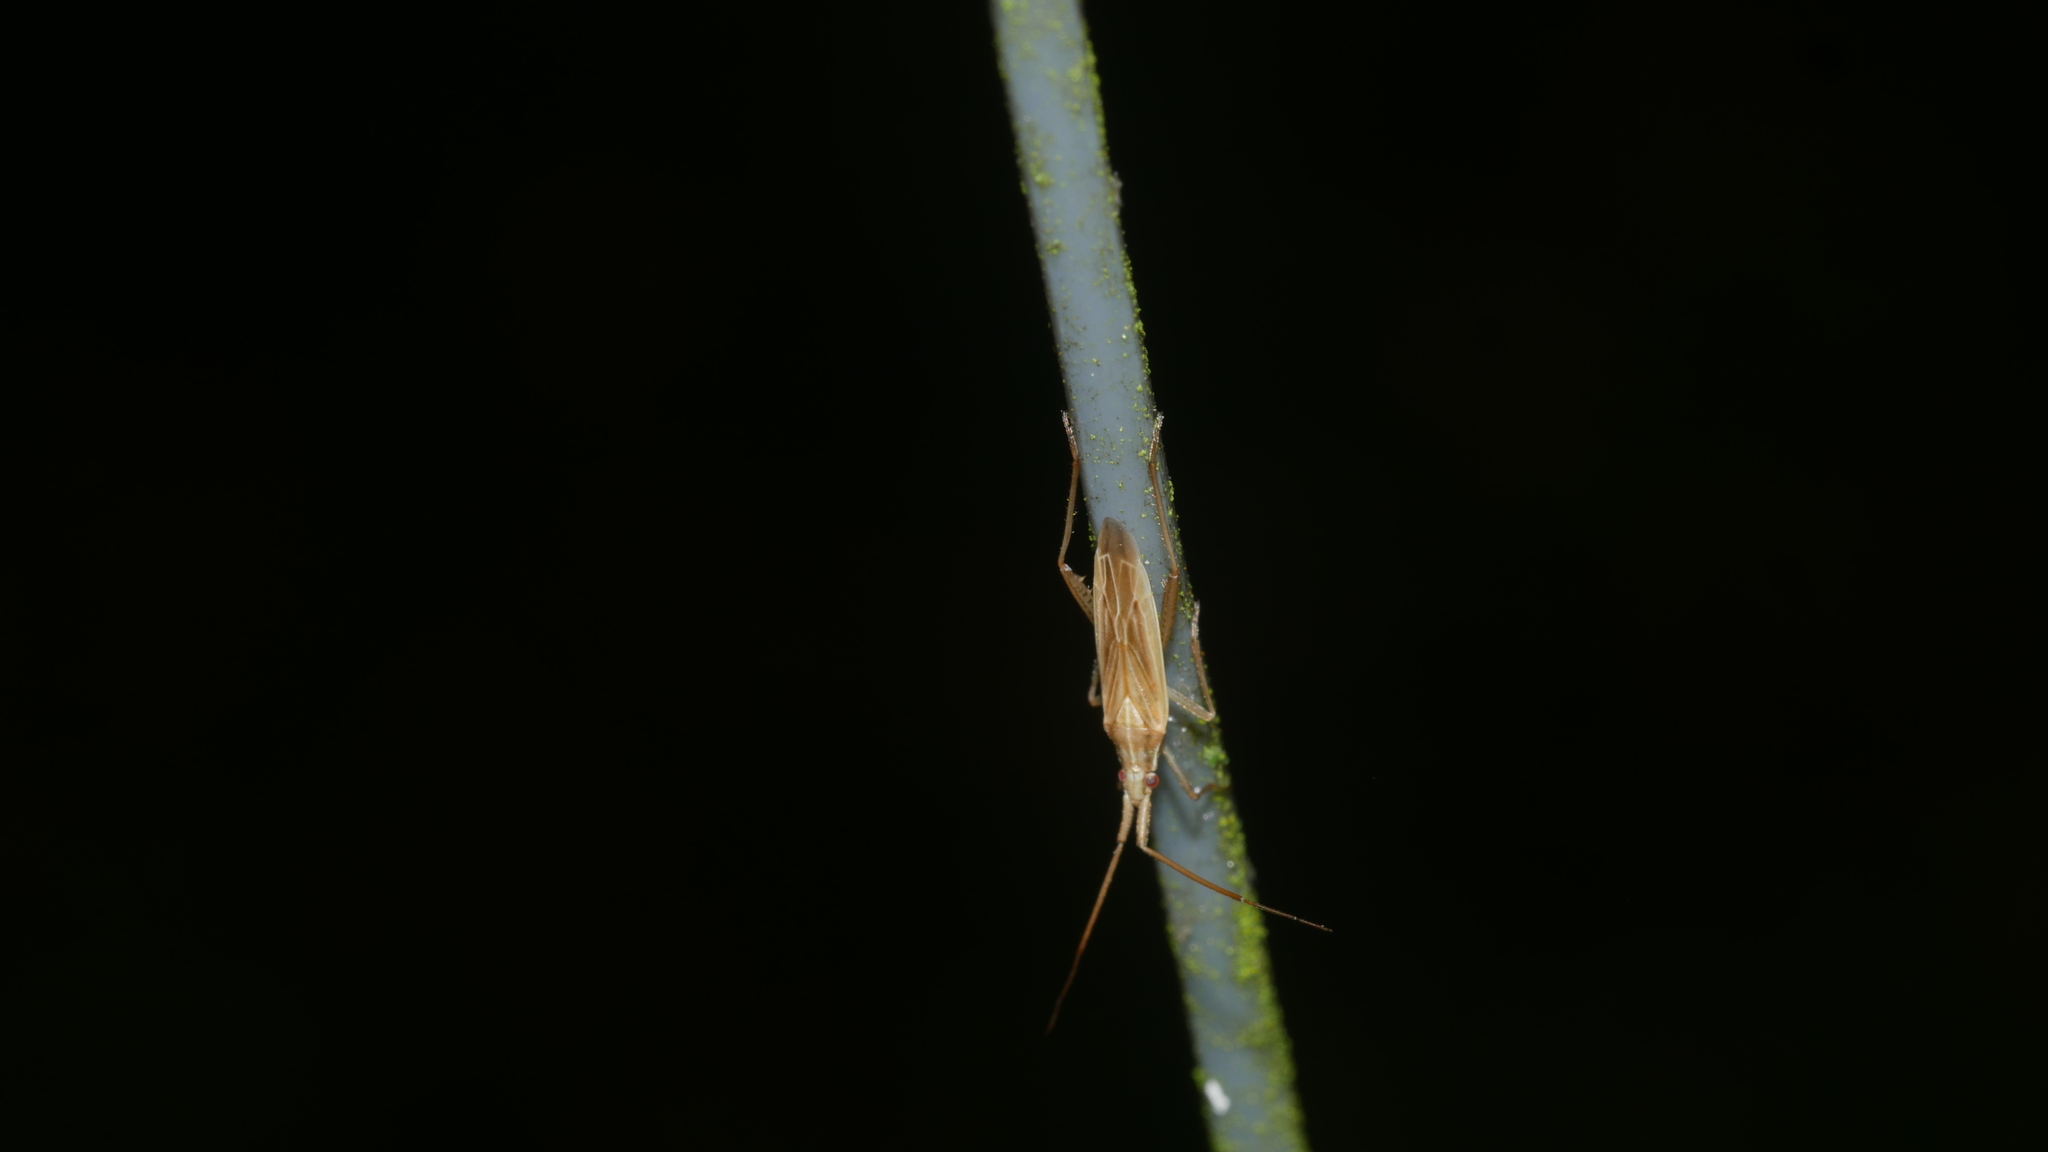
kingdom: Animalia
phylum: Arthropoda
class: Insecta
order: Hemiptera
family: Miridae
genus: Stenodema
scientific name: Stenodema trispinosa
